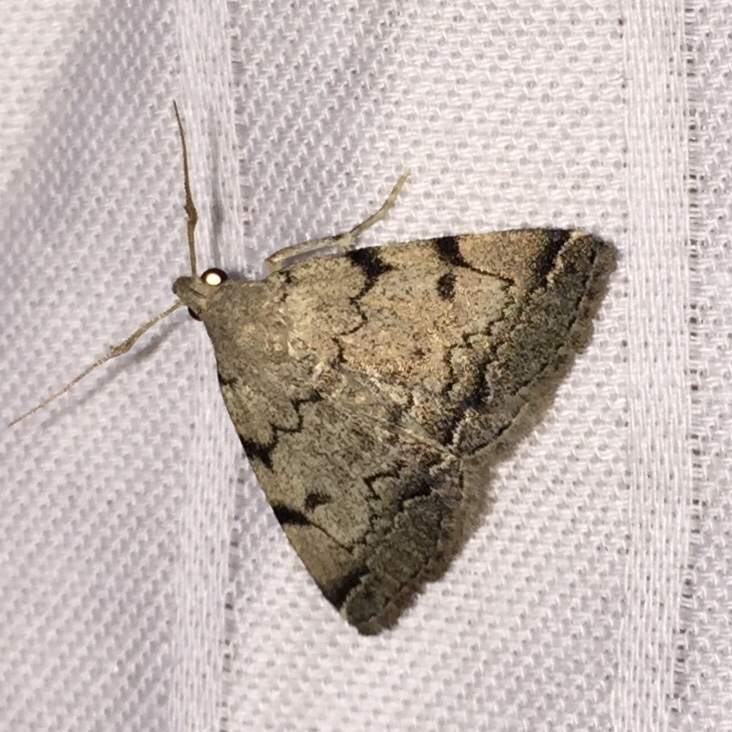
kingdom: Animalia
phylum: Arthropoda
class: Insecta
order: Lepidoptera
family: Erebidae
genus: Zanclognatha
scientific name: Zanclognatha theralis
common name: Flagged fan-foot
